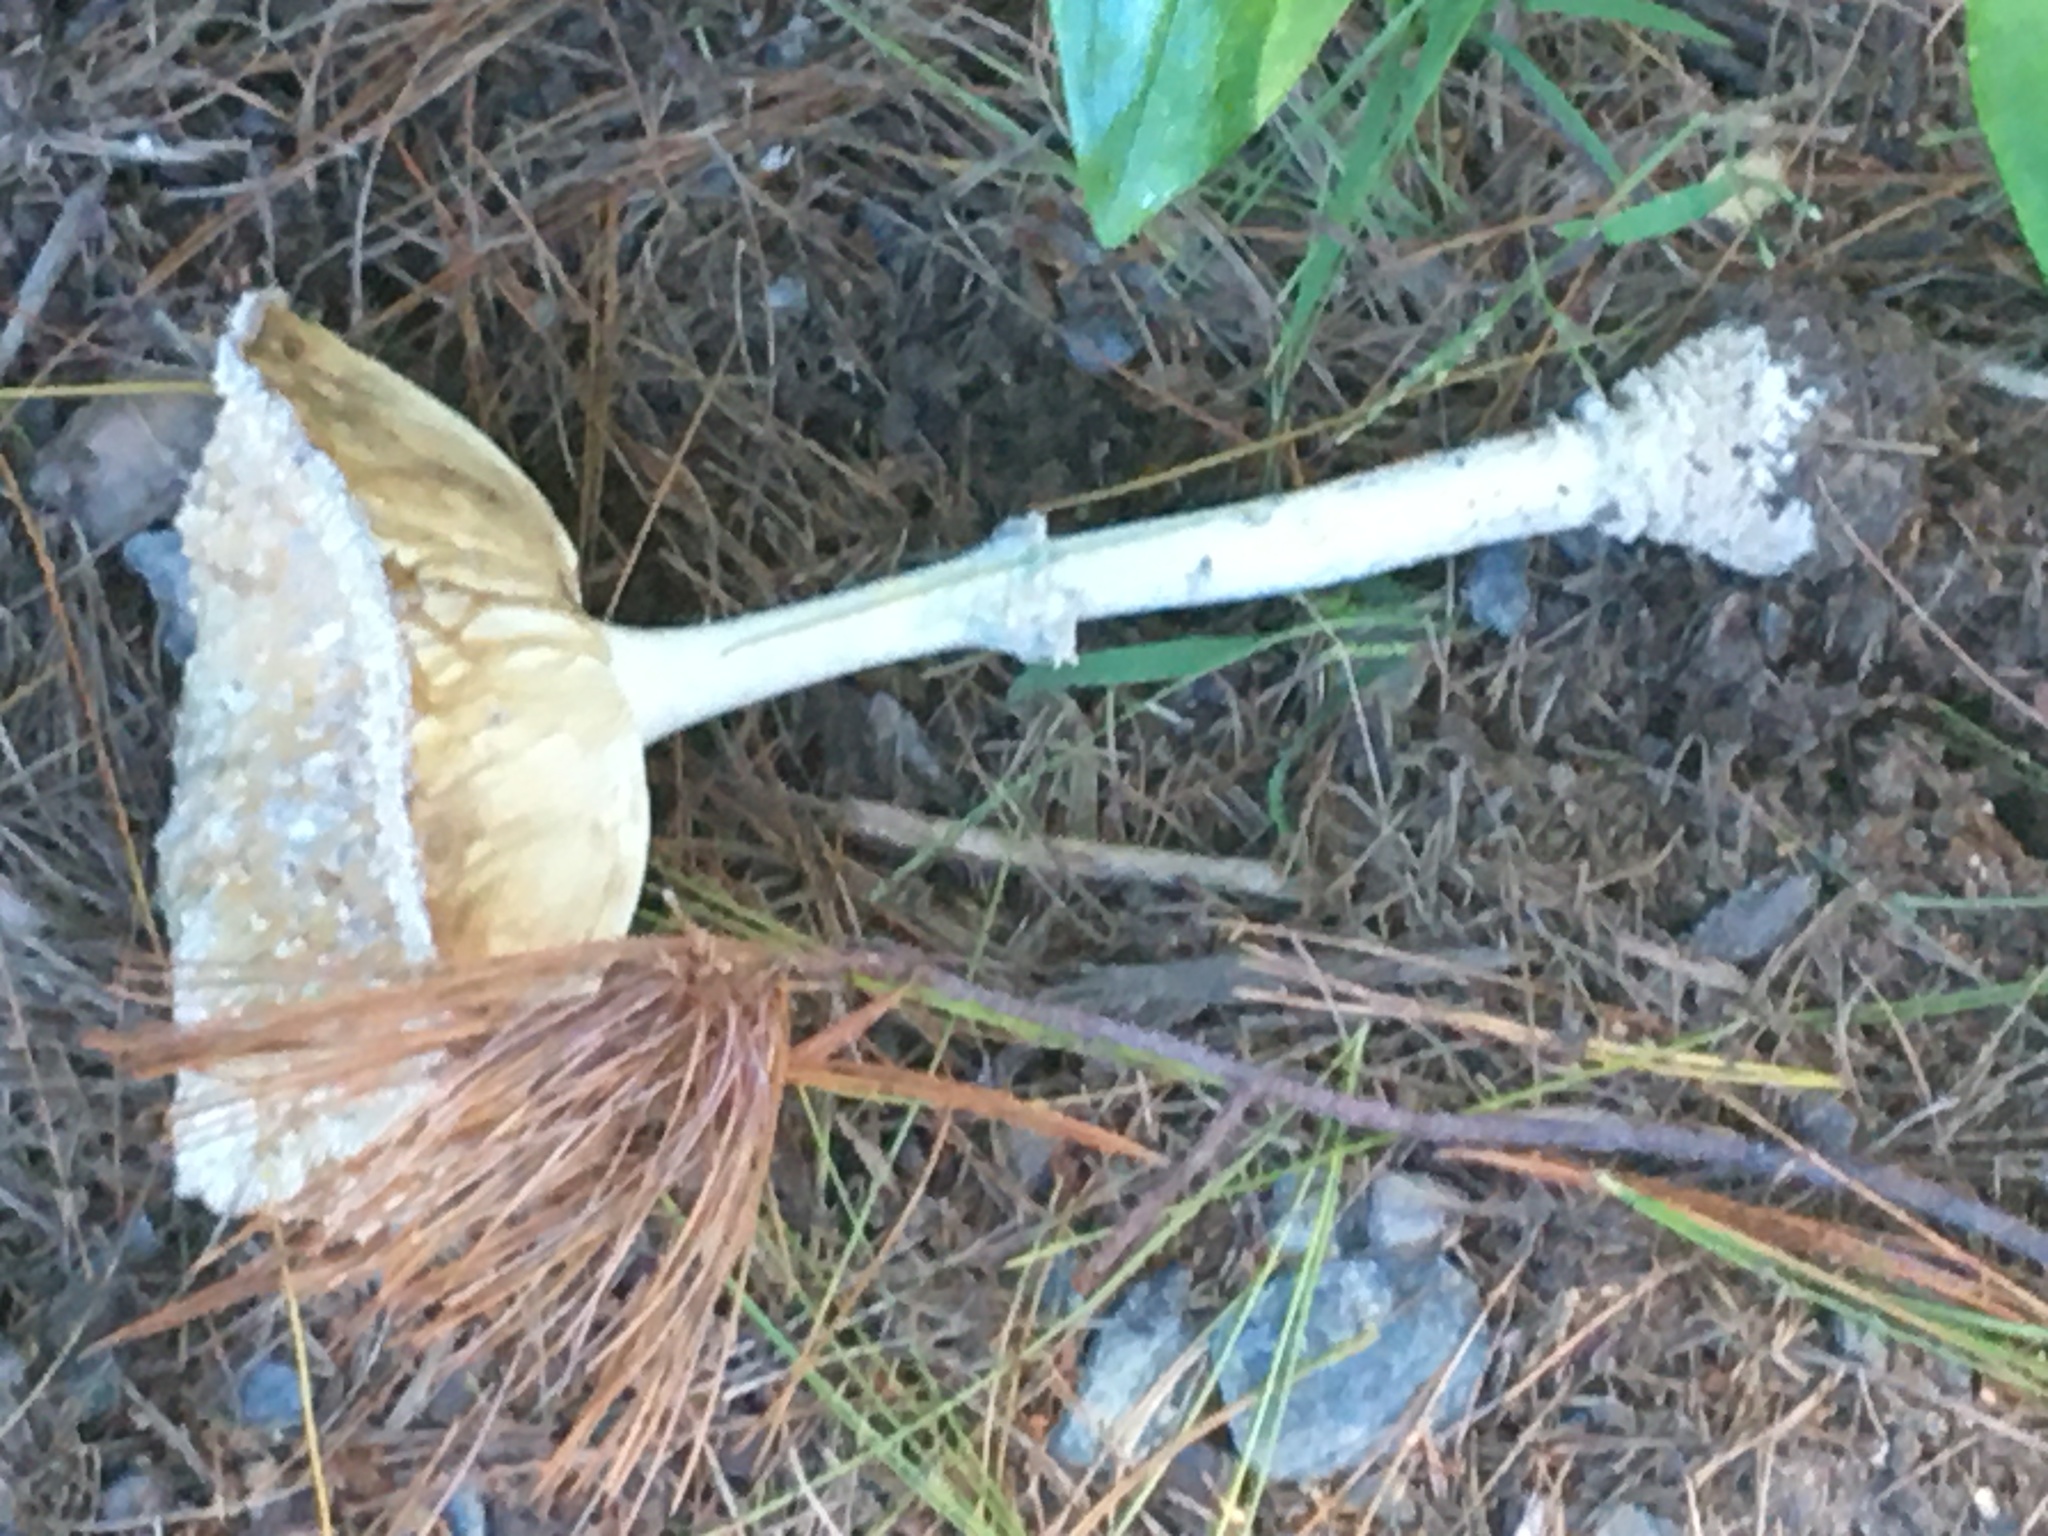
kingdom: Fungi
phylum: Basidiomycota
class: Agaricomycetes
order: Agaricales
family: Amanitaceae
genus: Amanita
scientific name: Amanita muscaria
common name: Fly agaric
